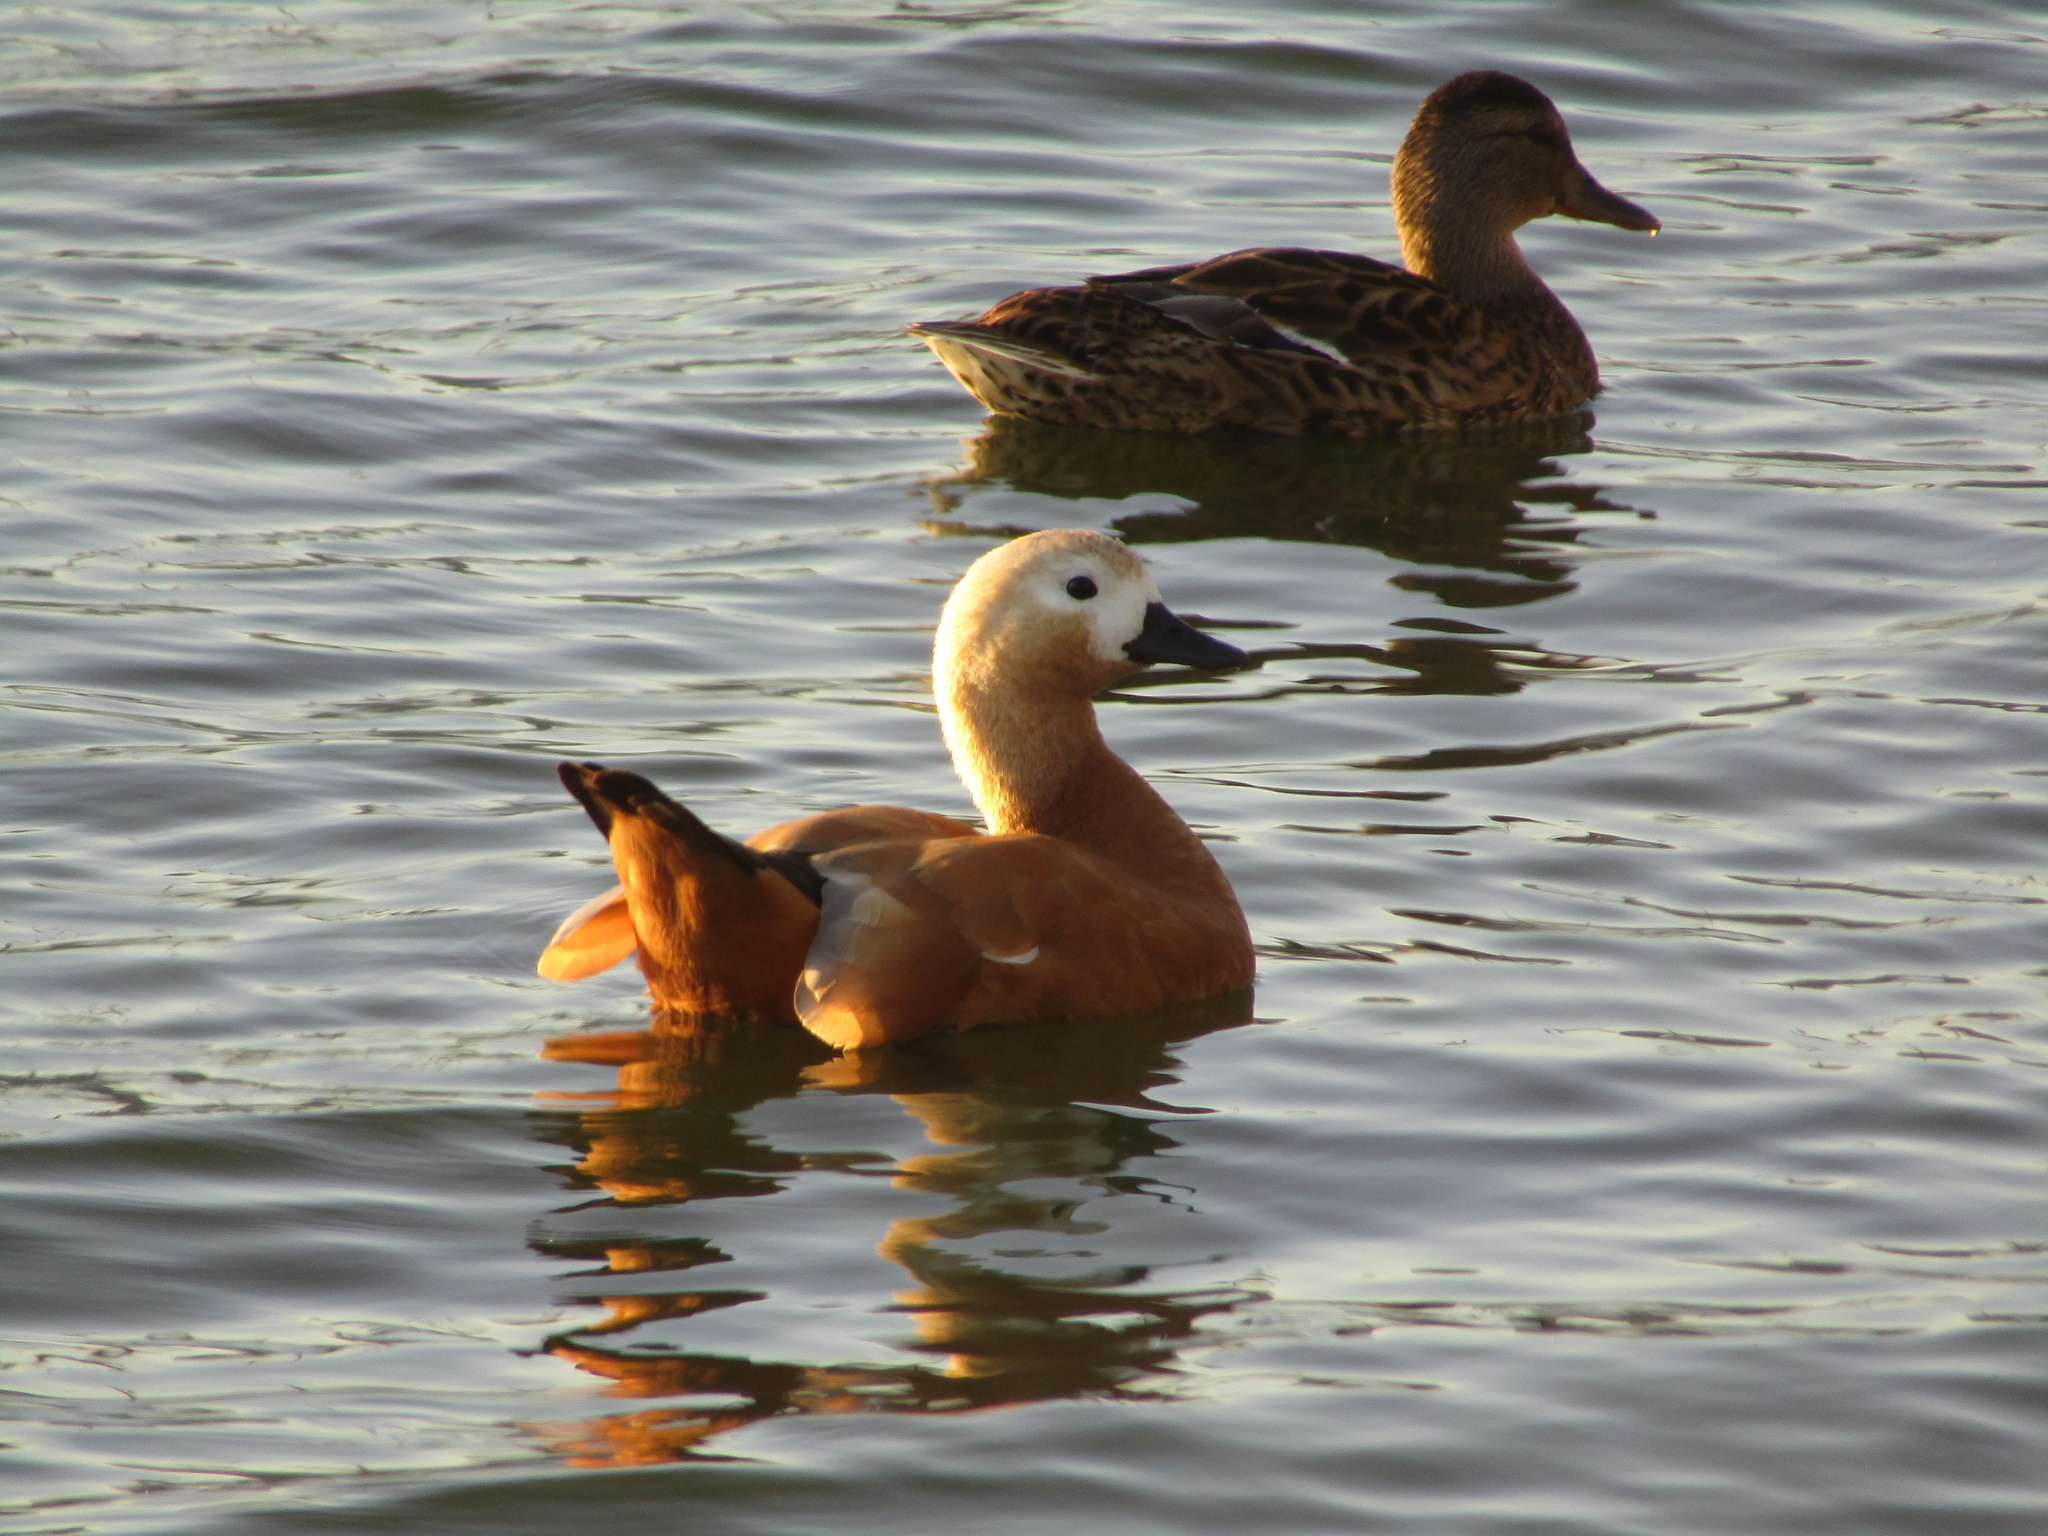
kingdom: Animalia
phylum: Chordata
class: Aves
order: Anseriformes
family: Anatidae
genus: Tadorna
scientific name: Tadorna ferruginea
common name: Ruddy shelduck
